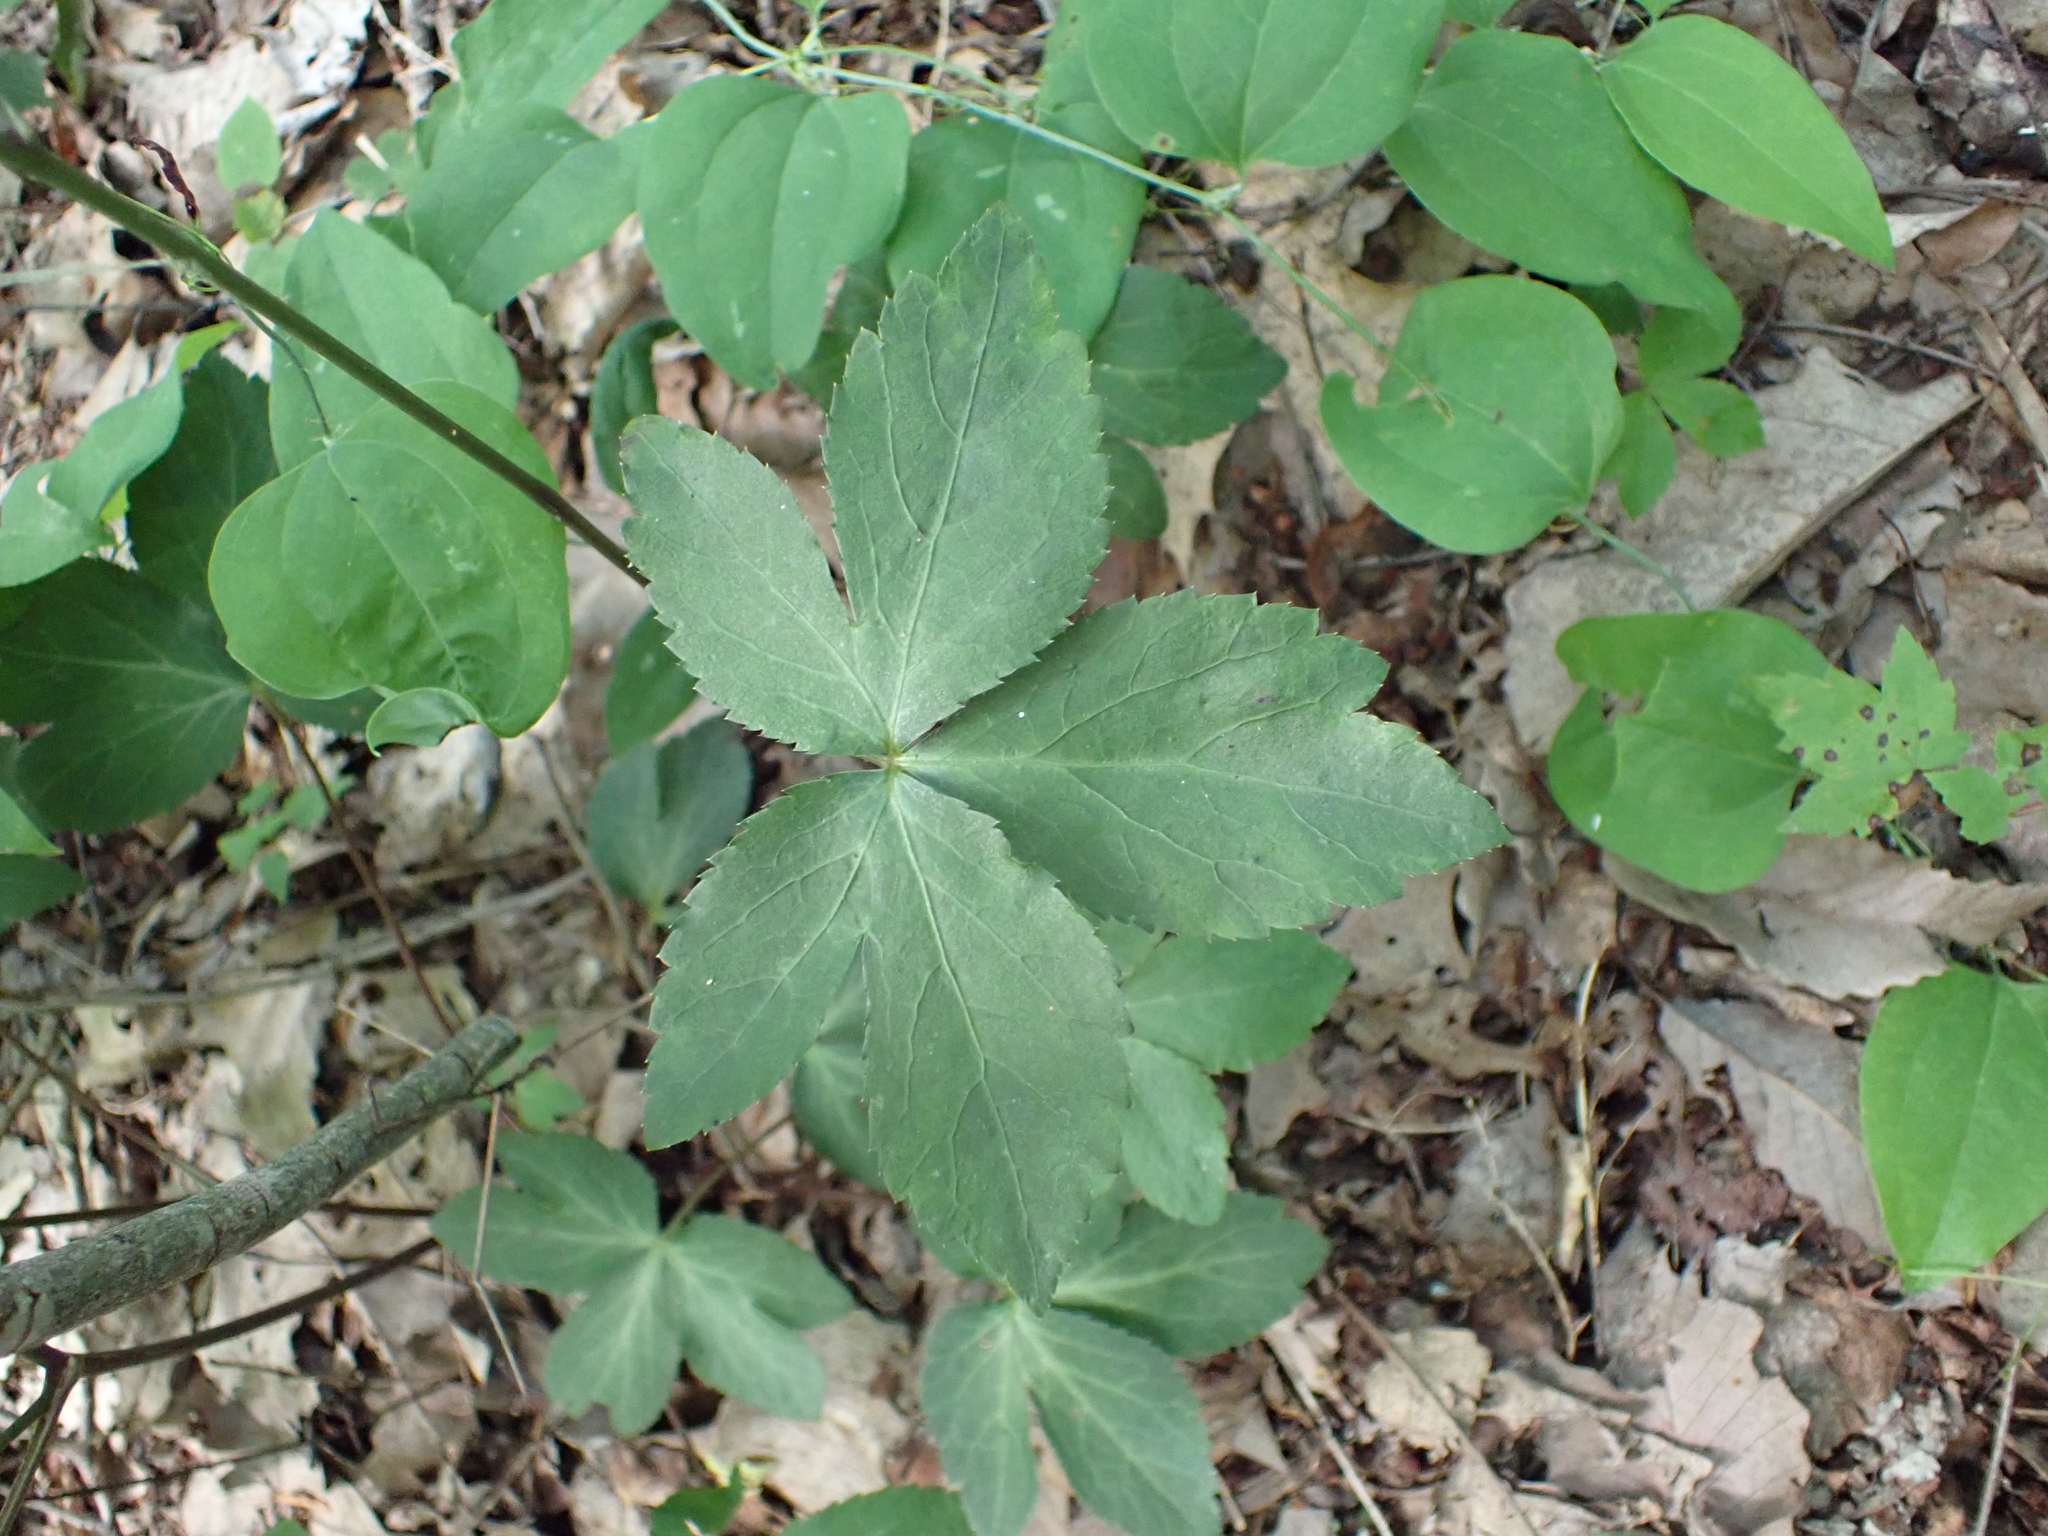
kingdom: Plantae
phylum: Tracheophyta
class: Magnoliopsida
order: Apiales
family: Apiaceae
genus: Sanicula
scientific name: Sanicula smallii
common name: Small's black snakeroot
